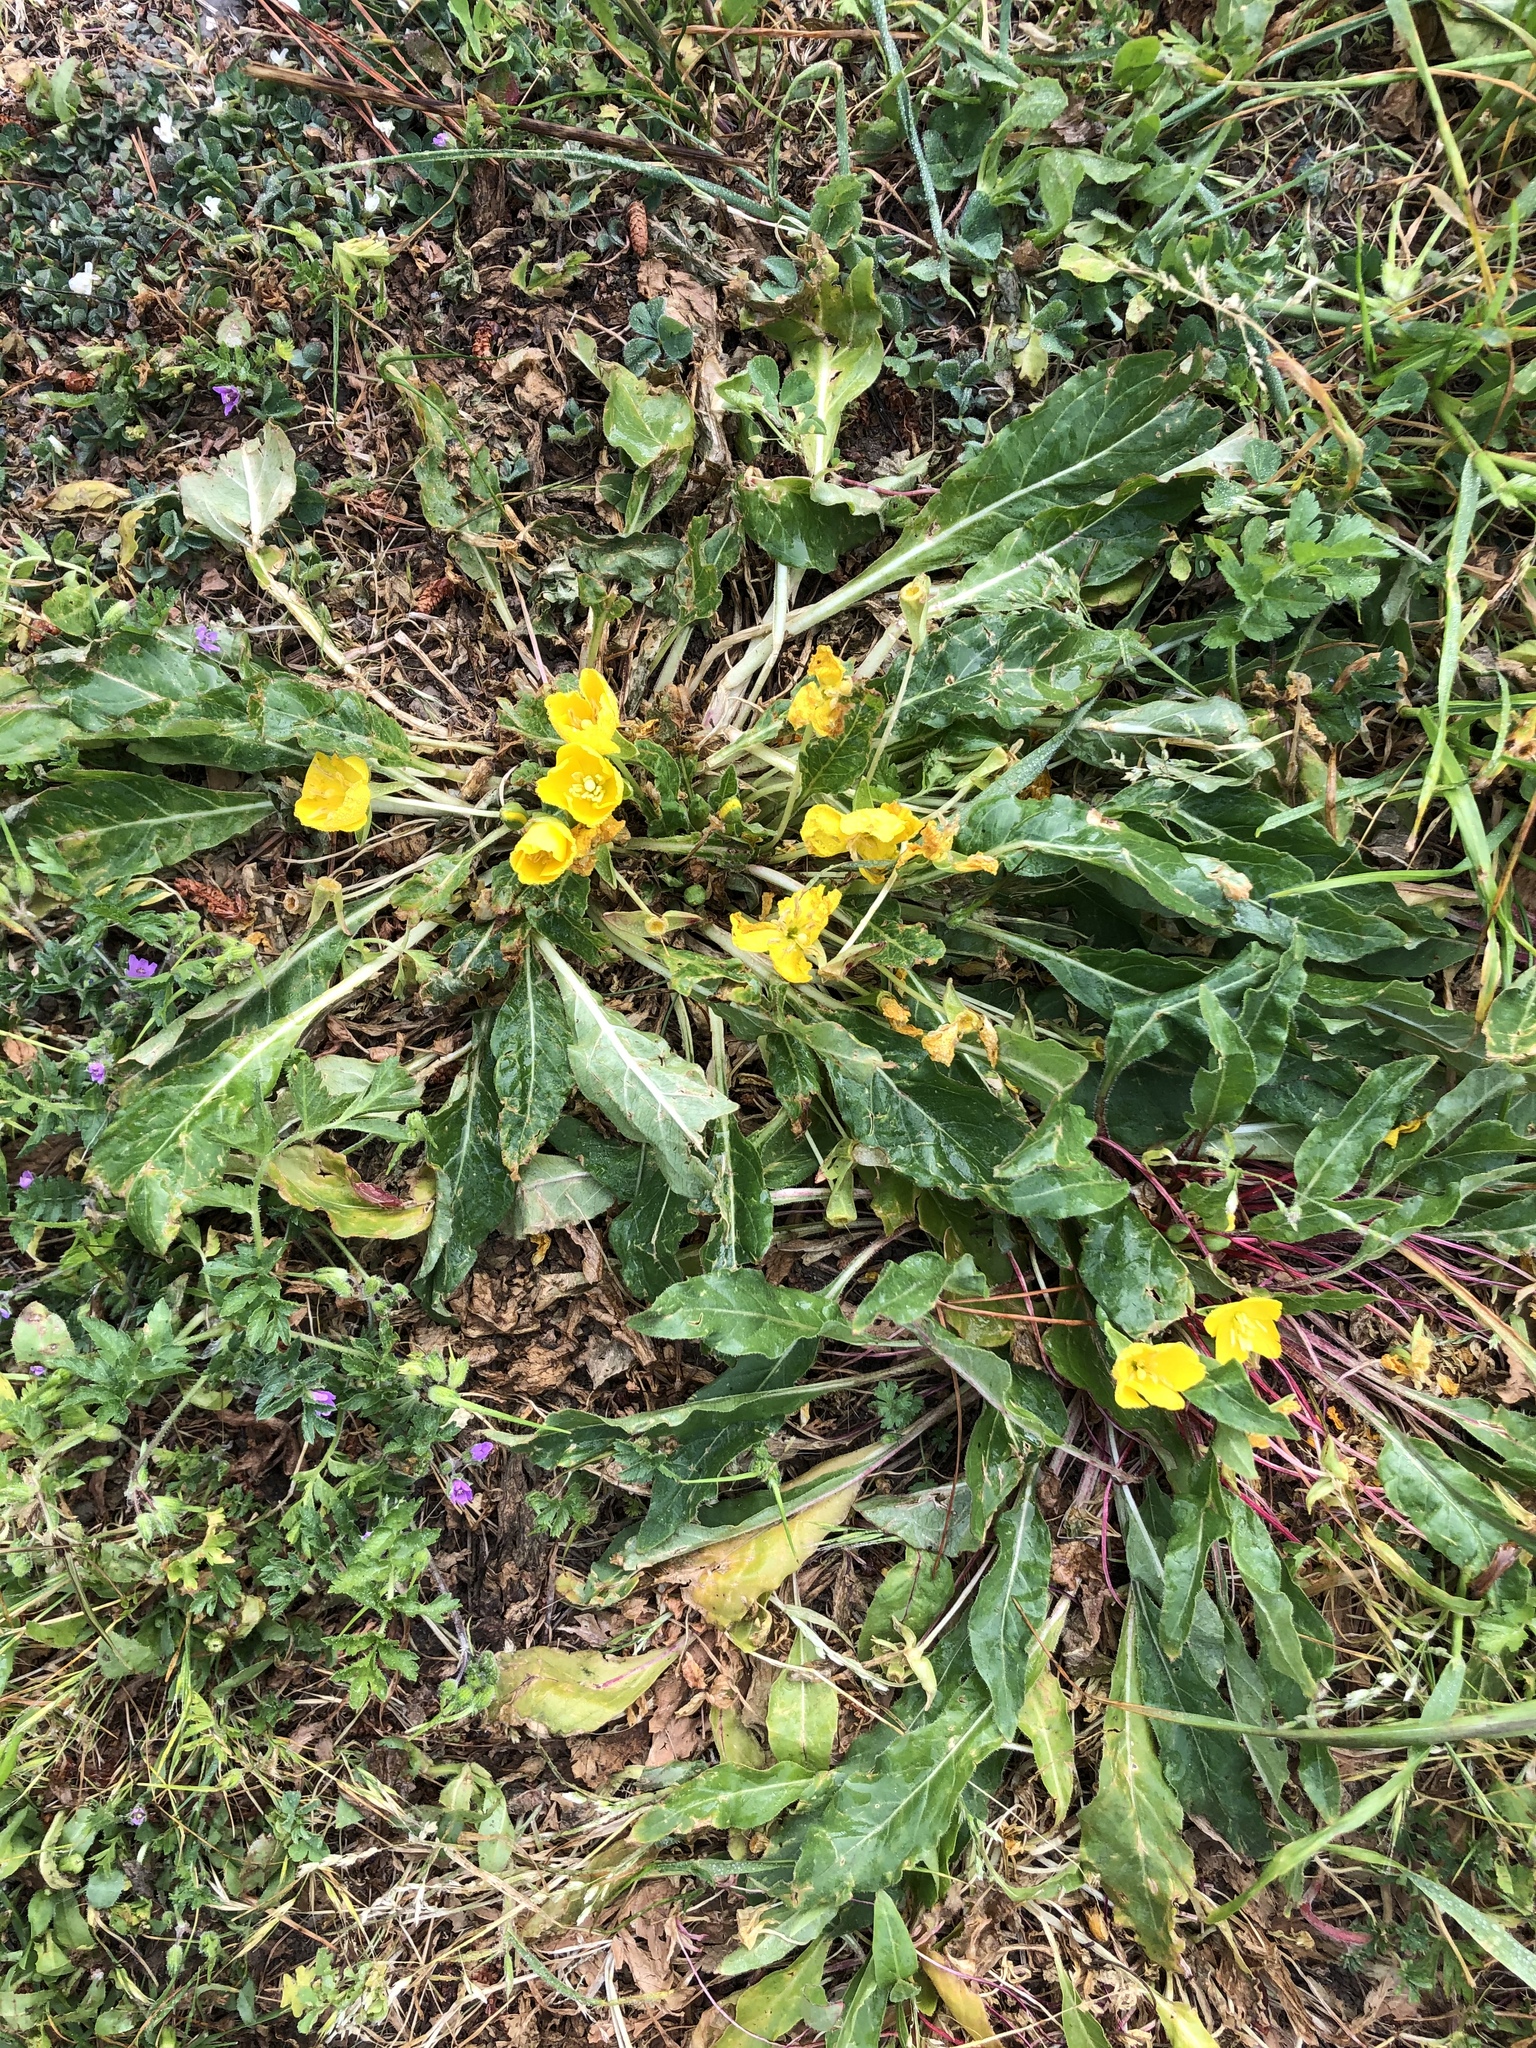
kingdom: Plantae
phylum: Tracheophyta
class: Magnoliopsida
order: Myrtales
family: Onagraceae
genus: Taraxia
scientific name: Taraxia ovata
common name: Goldeneggs
